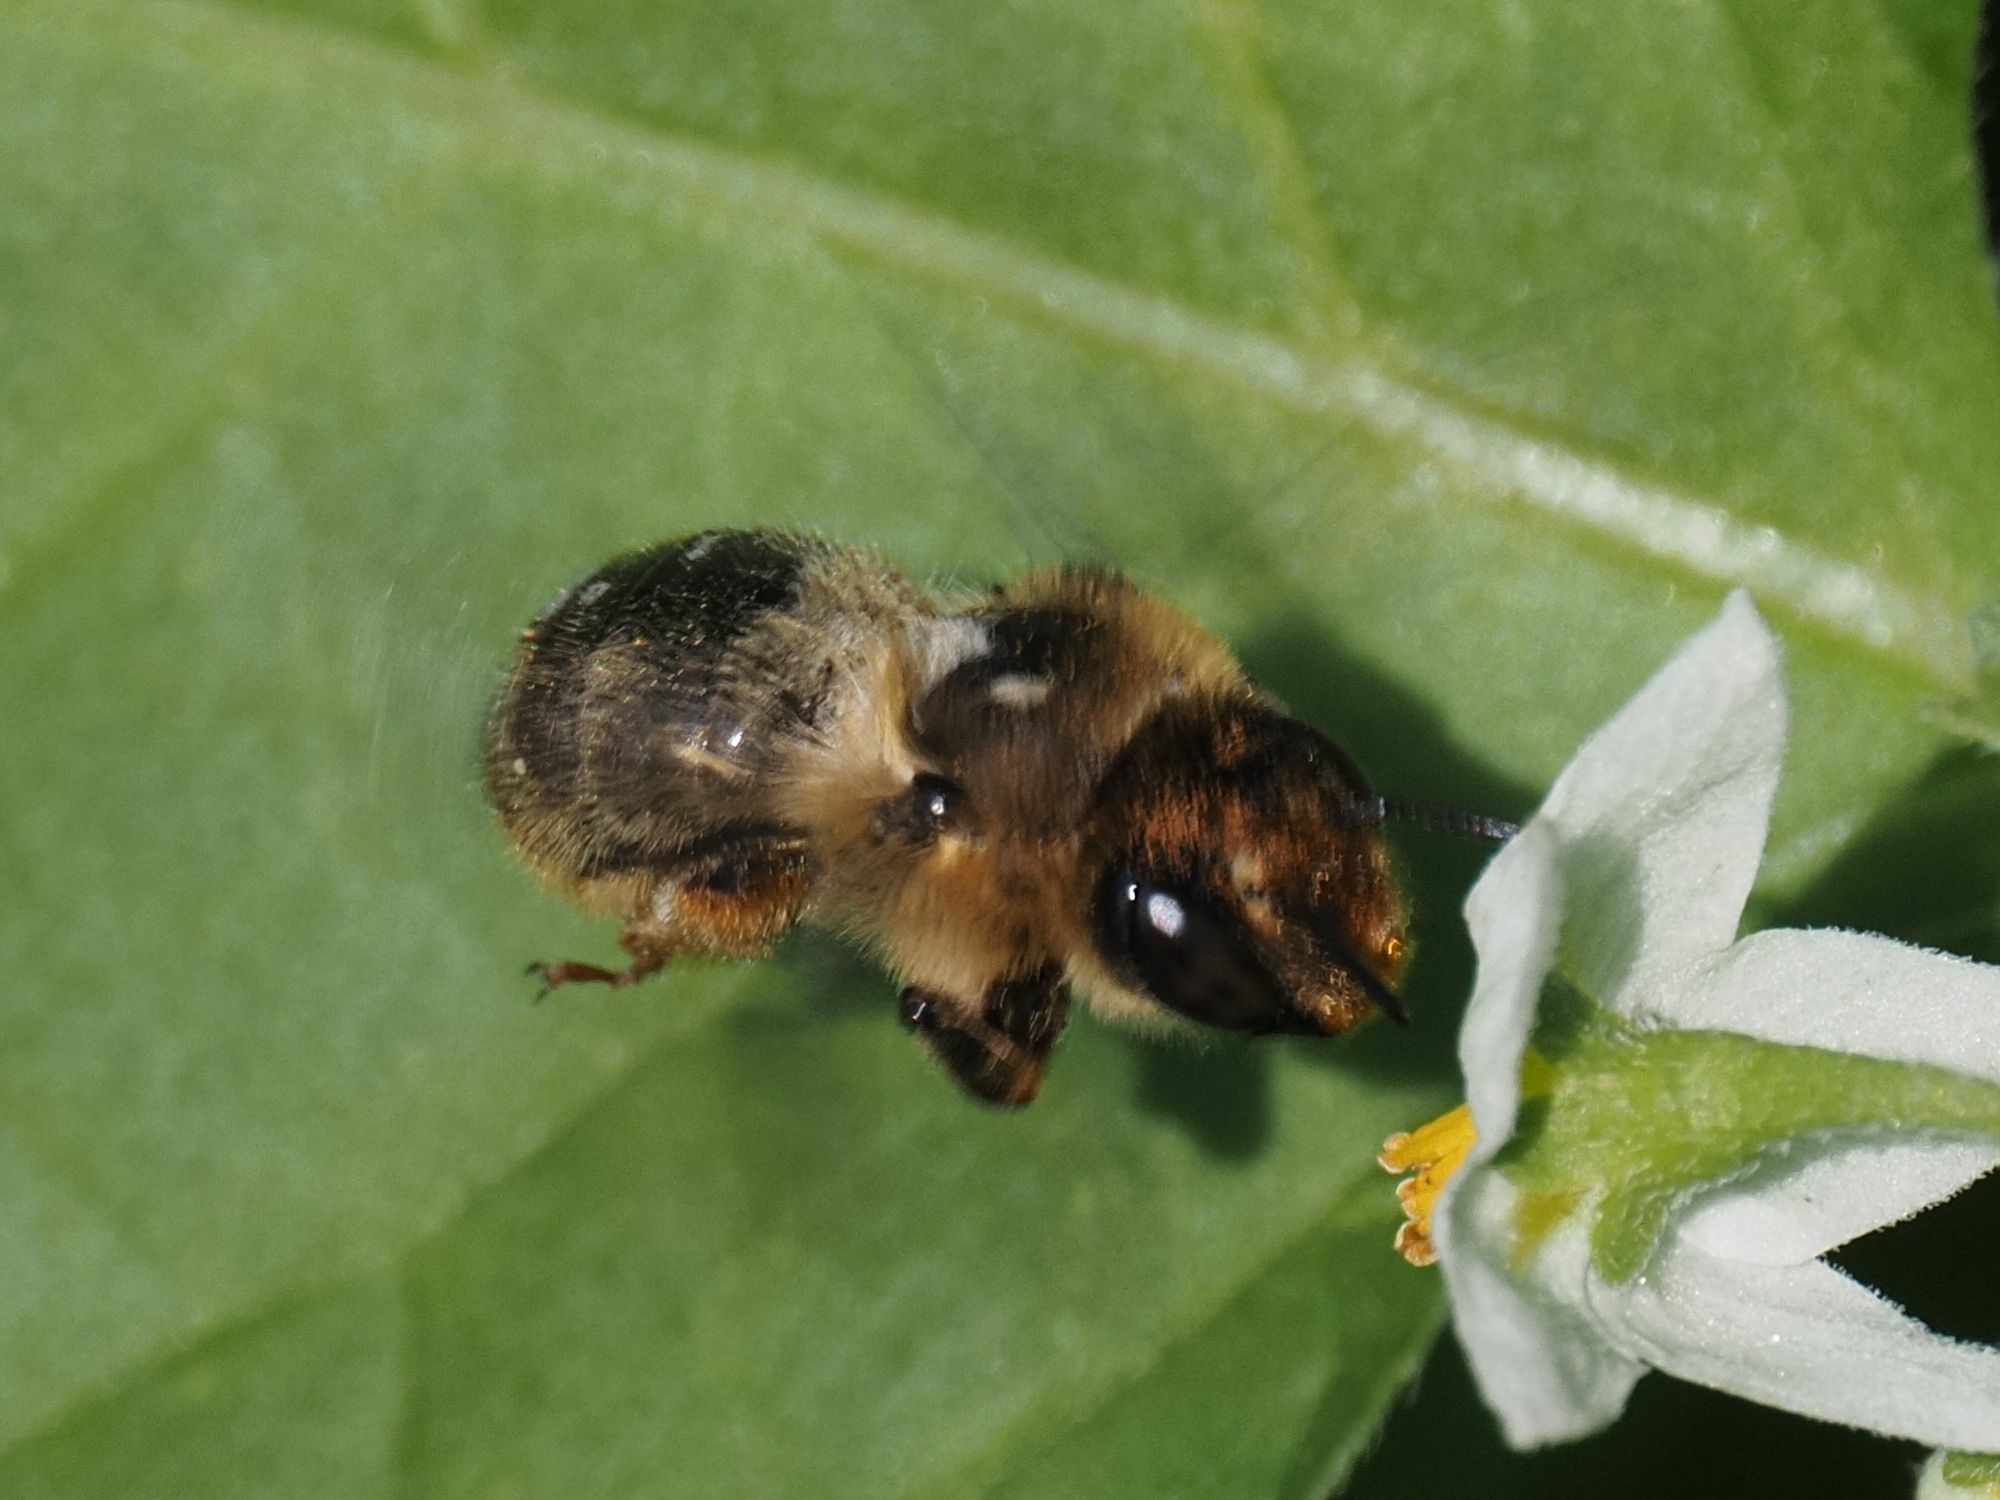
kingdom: Animalia
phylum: Arthropoda
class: Insecta
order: Hymenoptera
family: Apidae
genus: Anthophora
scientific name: Anthophora furcata
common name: Fork-tailed flower bee
